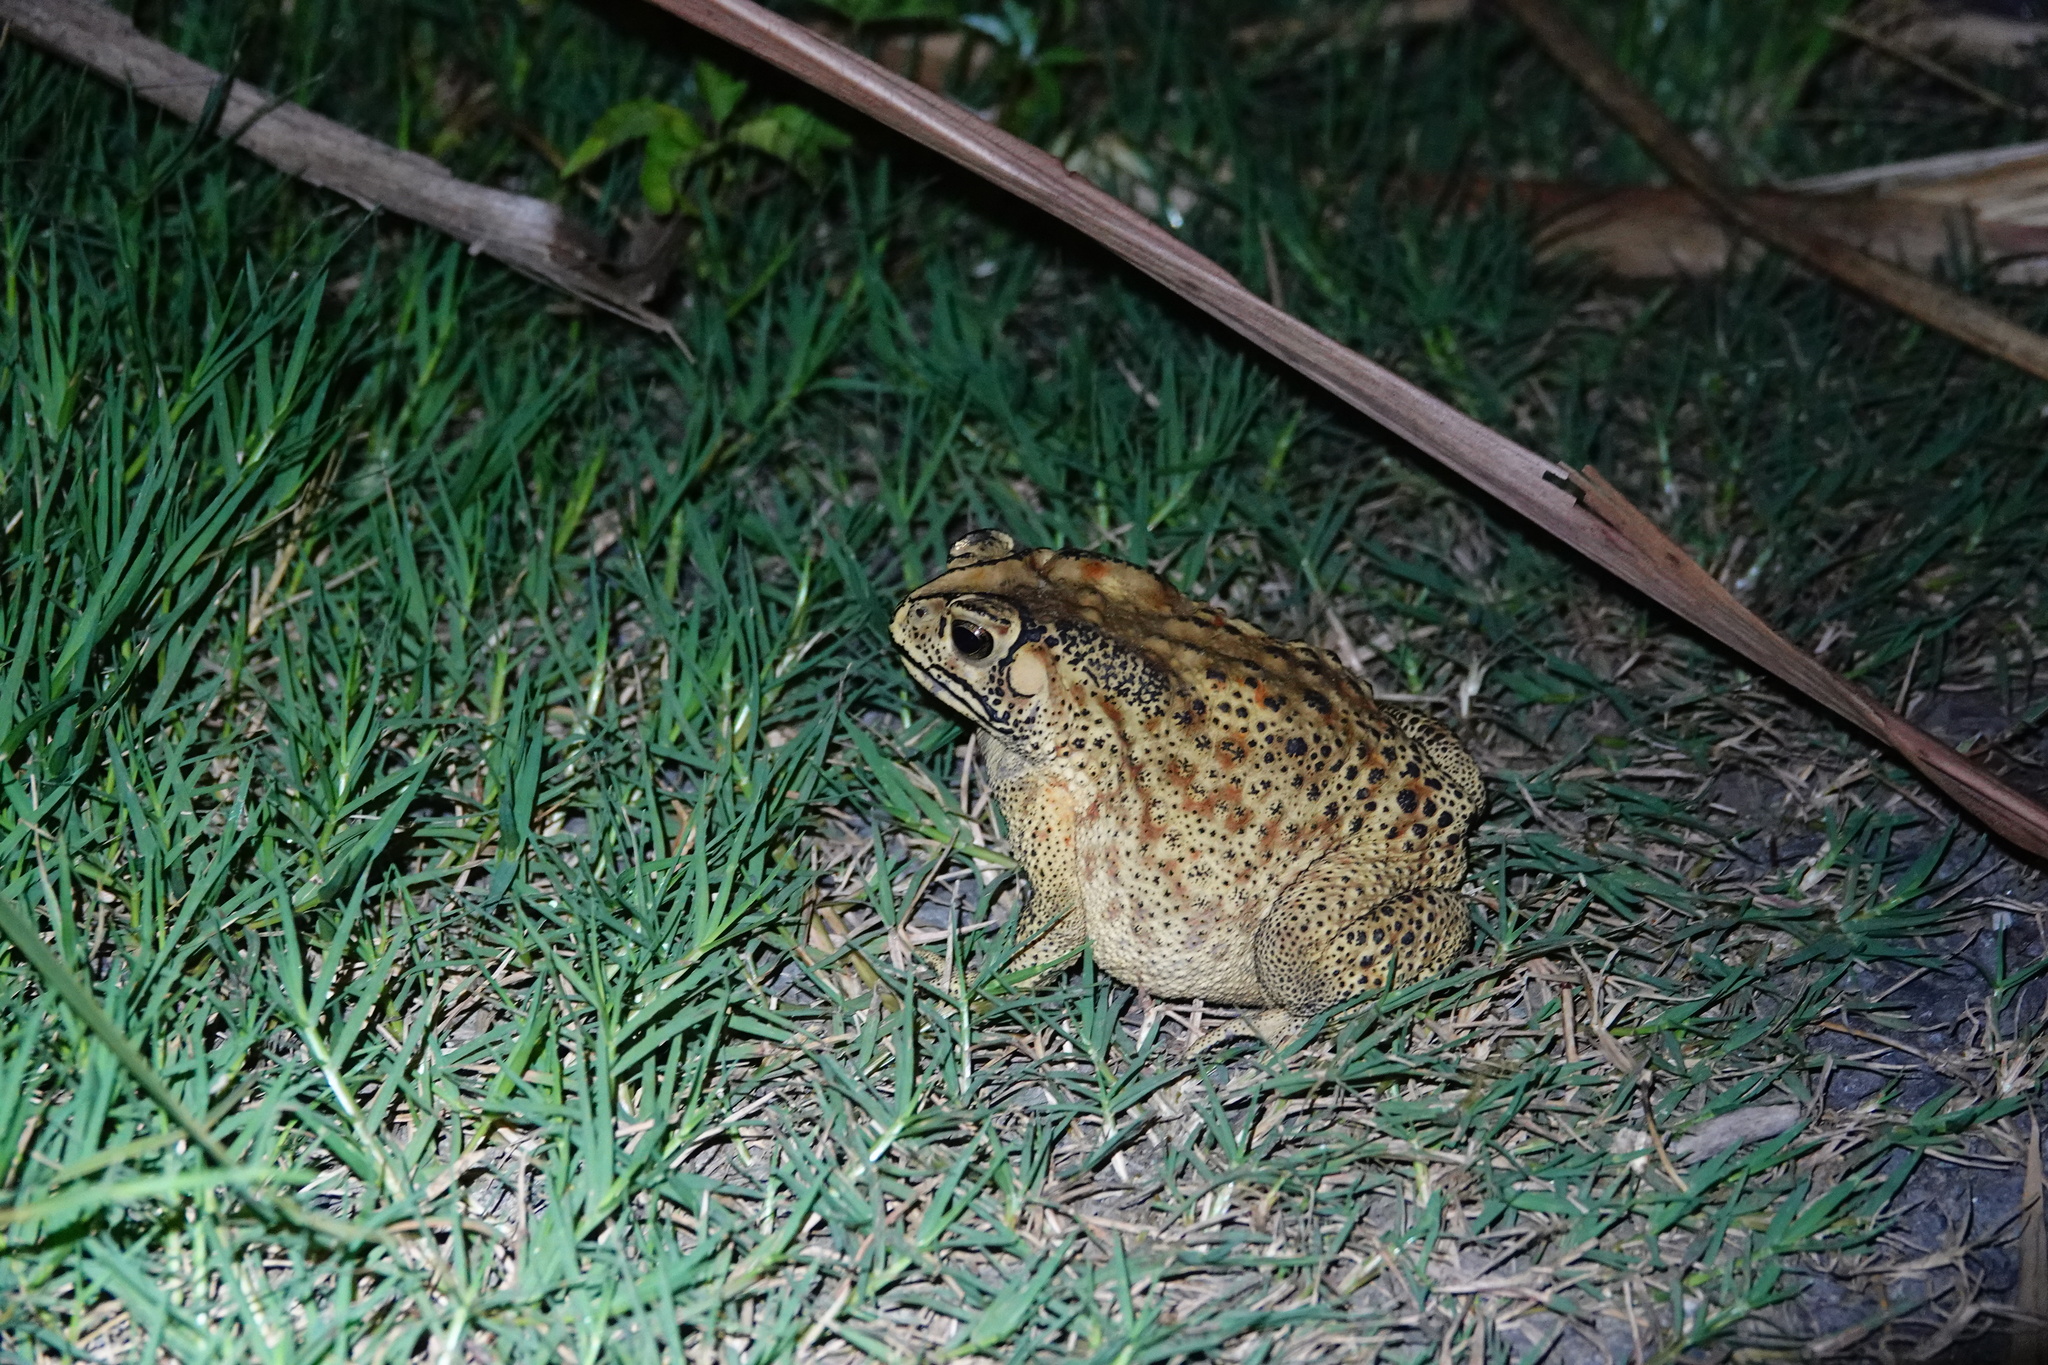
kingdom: Animalia
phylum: Chordata
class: Amphibia
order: Anura
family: Bufonidae
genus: Duttaphrynus
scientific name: Duttaphrynus melanostictus
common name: Common sunda toad
